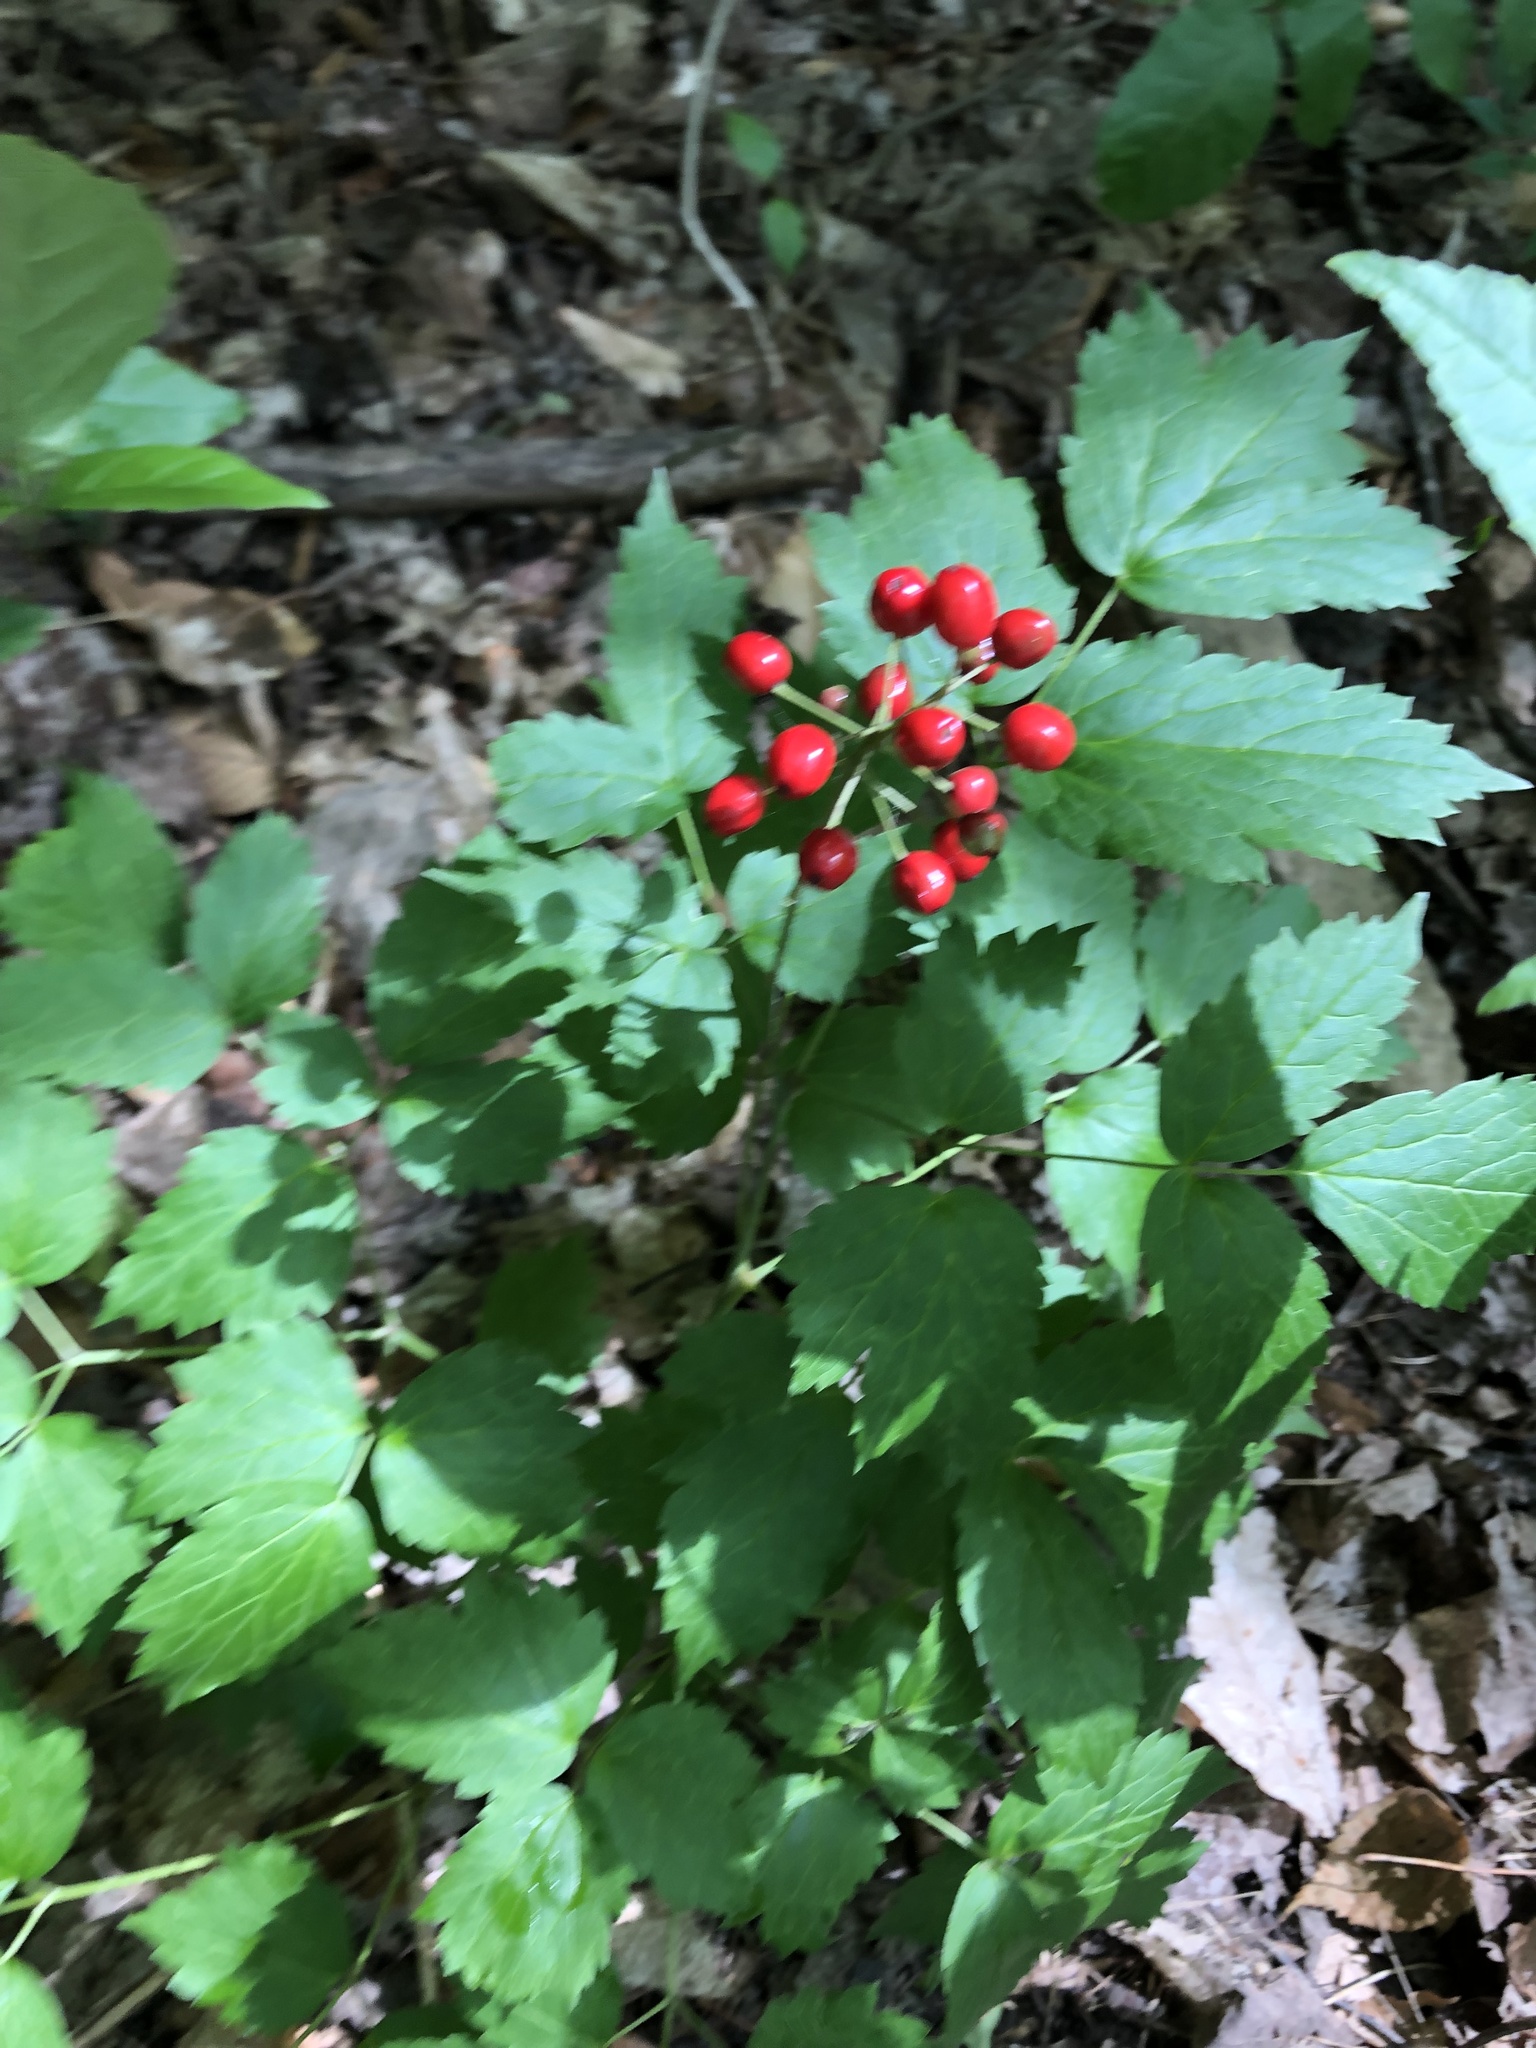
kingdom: Plantae
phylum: Tracheophyta
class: Magnoliopsida
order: Ranunculales
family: Ranunculaceae
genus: Actaea
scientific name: Actaea rubra
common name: Red baneberry
